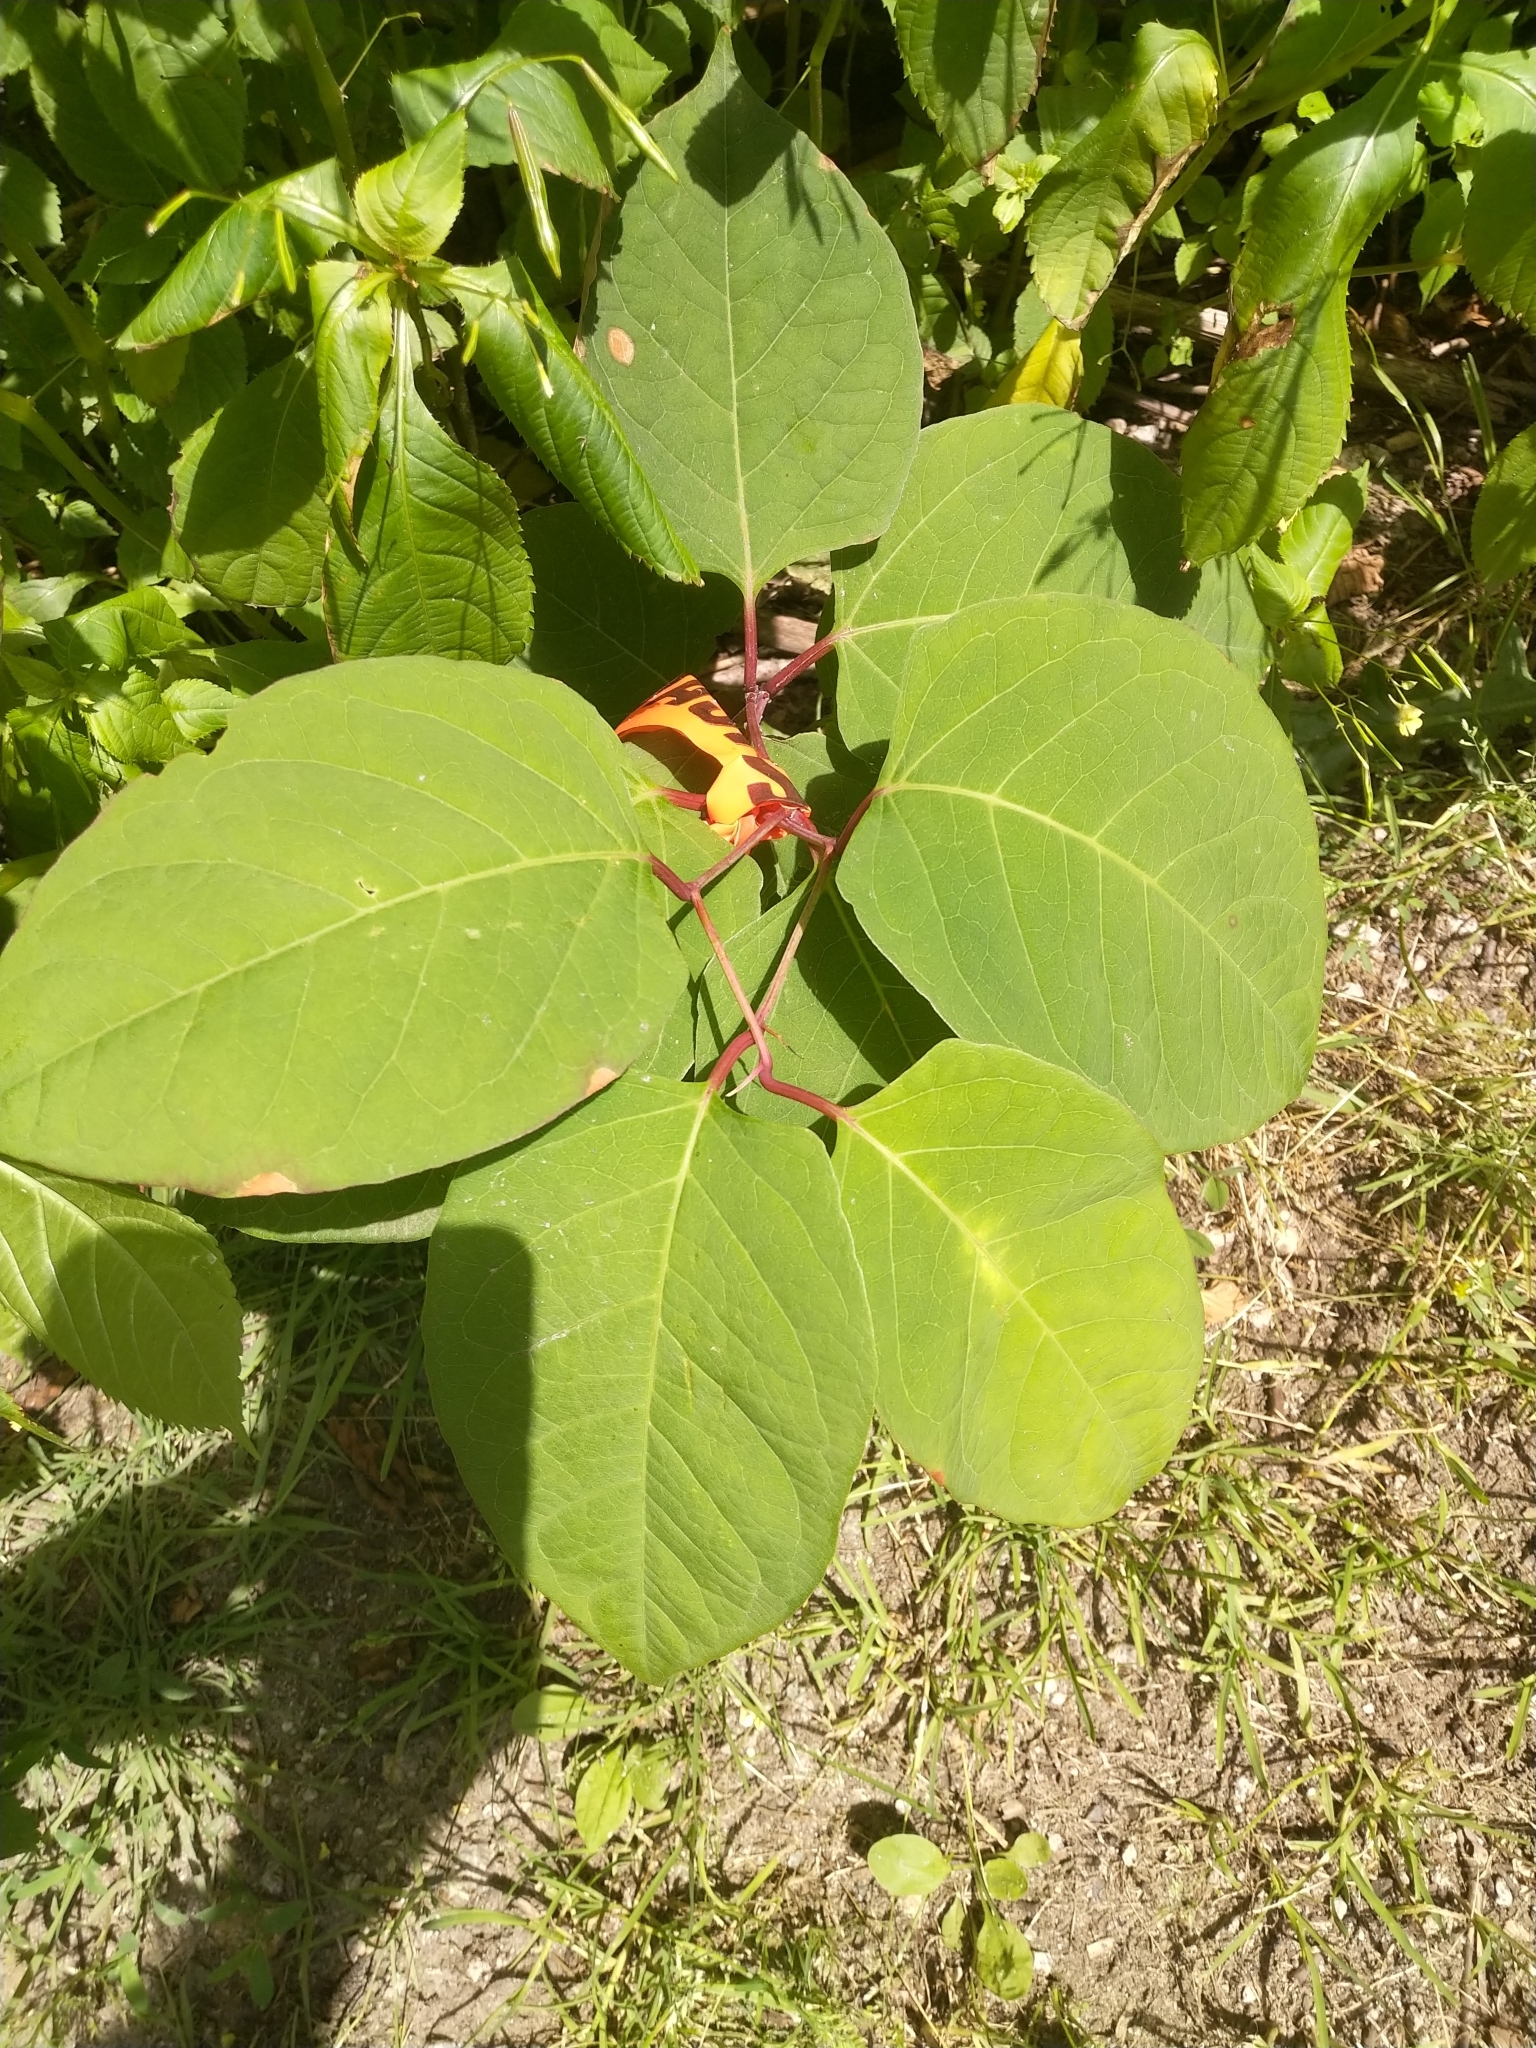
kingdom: Plantae
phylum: Tracheophyta
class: Magnoliopsida
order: Caryophyllales
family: Polygonaceae
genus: Reynoutria
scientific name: Reynoutria japonica
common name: Japanese knotweed
